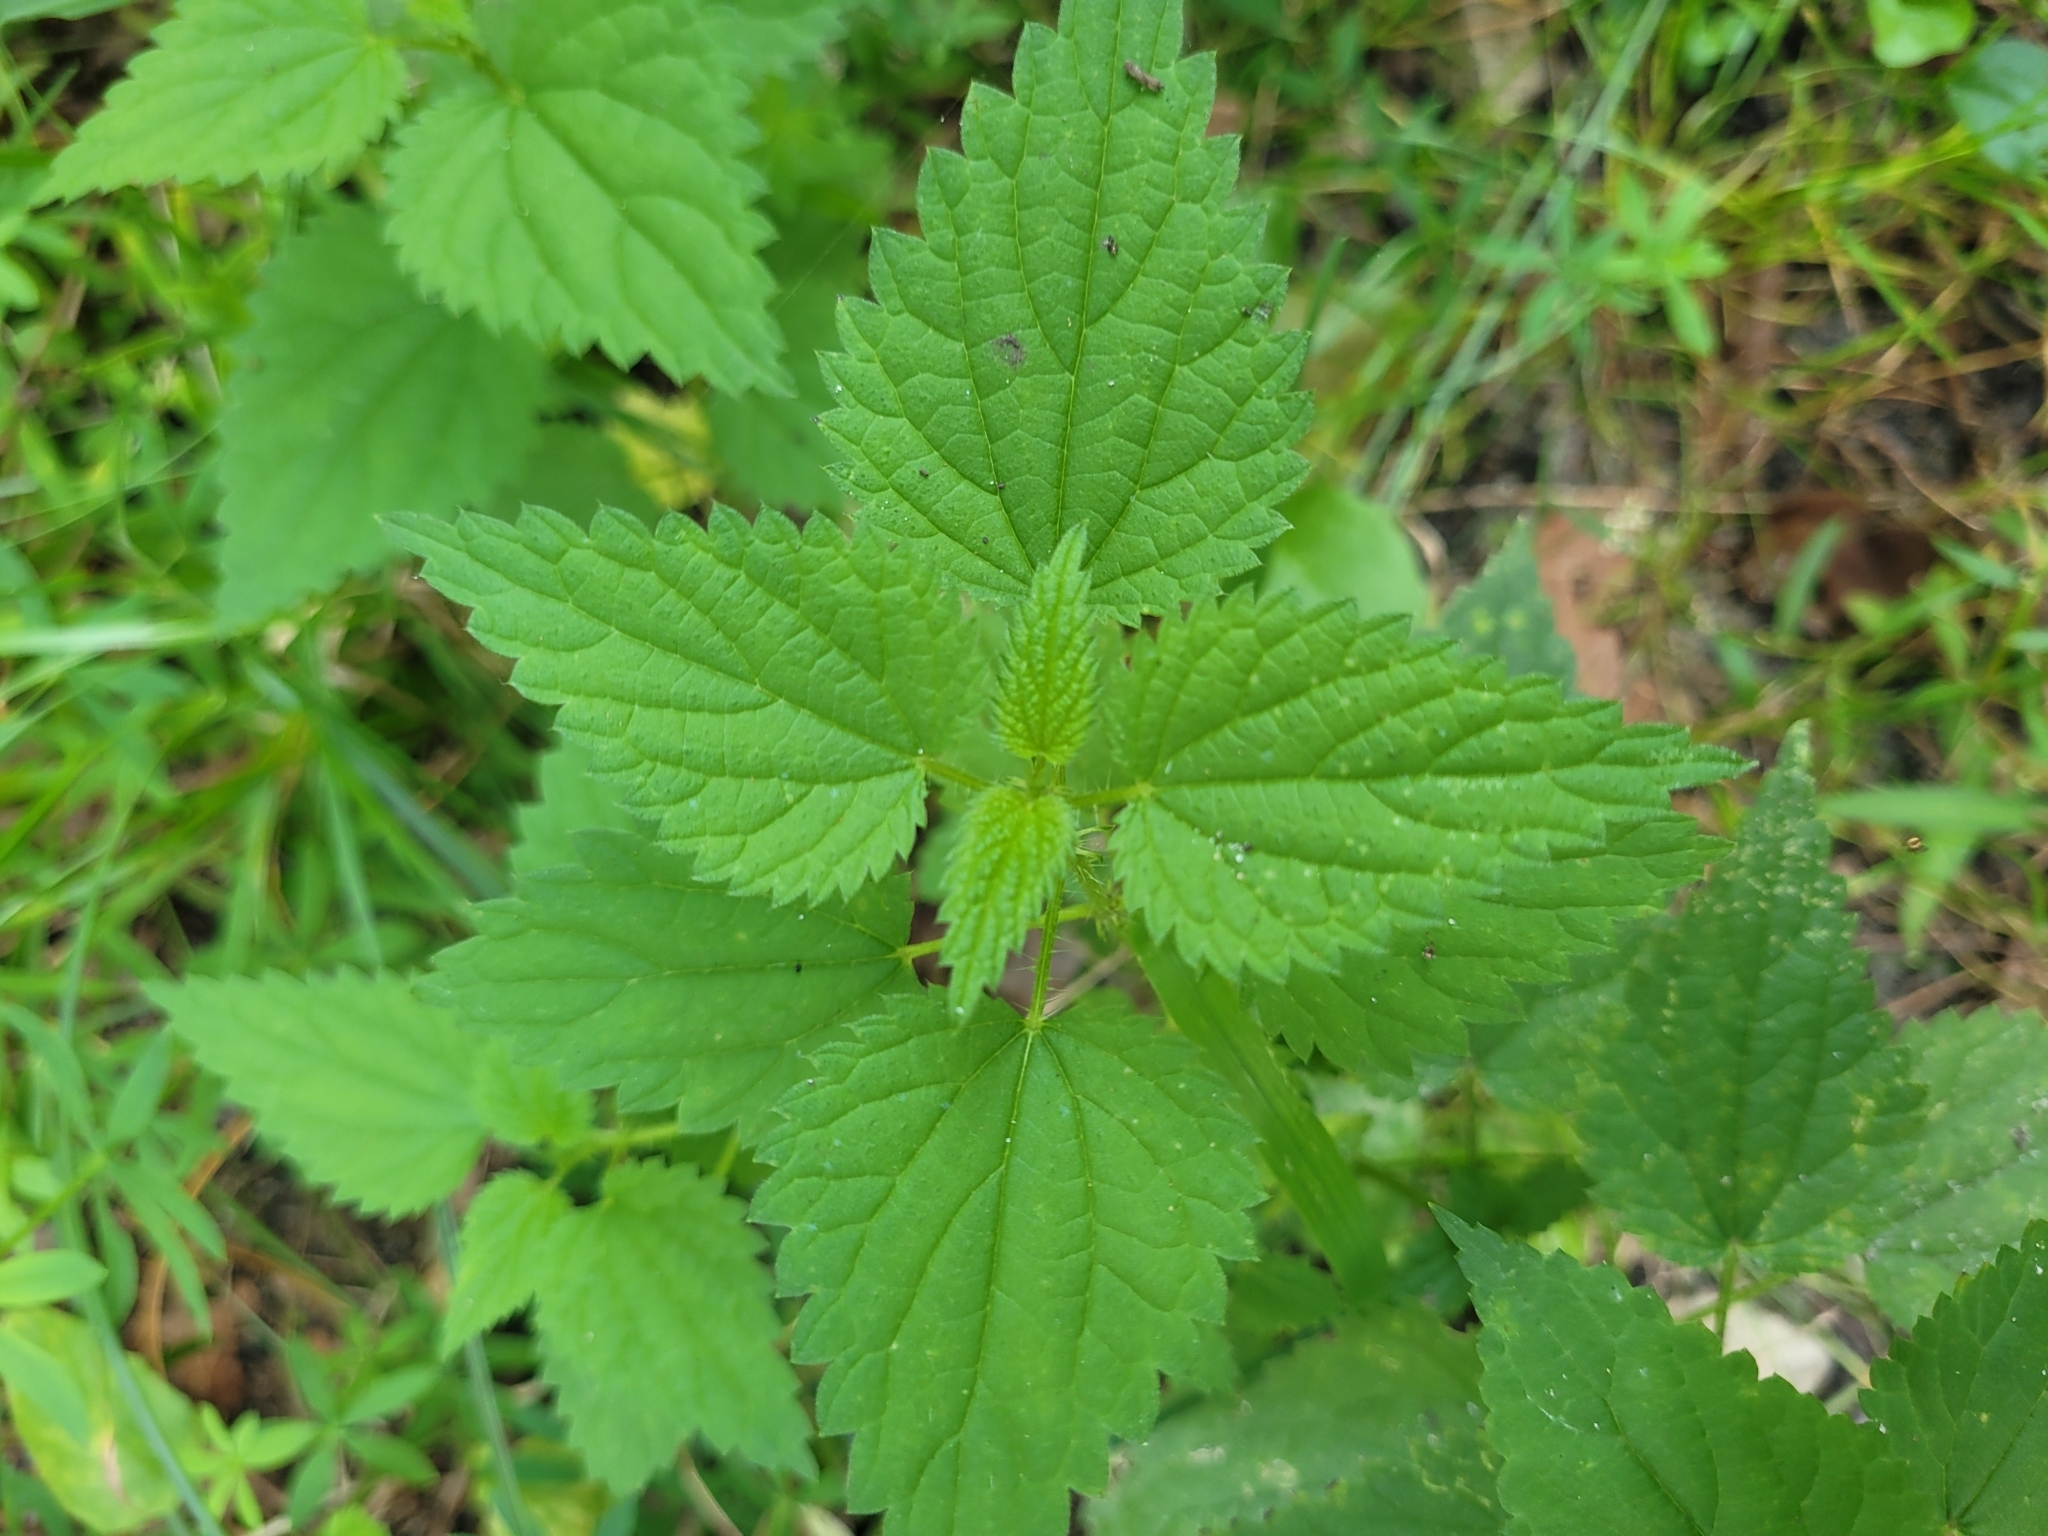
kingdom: Plantae
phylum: Tracheophyta
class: Magnoliopsida
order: Rosales
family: Urticaceae
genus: Urtica
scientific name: Urtica dioica
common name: Common nettle
